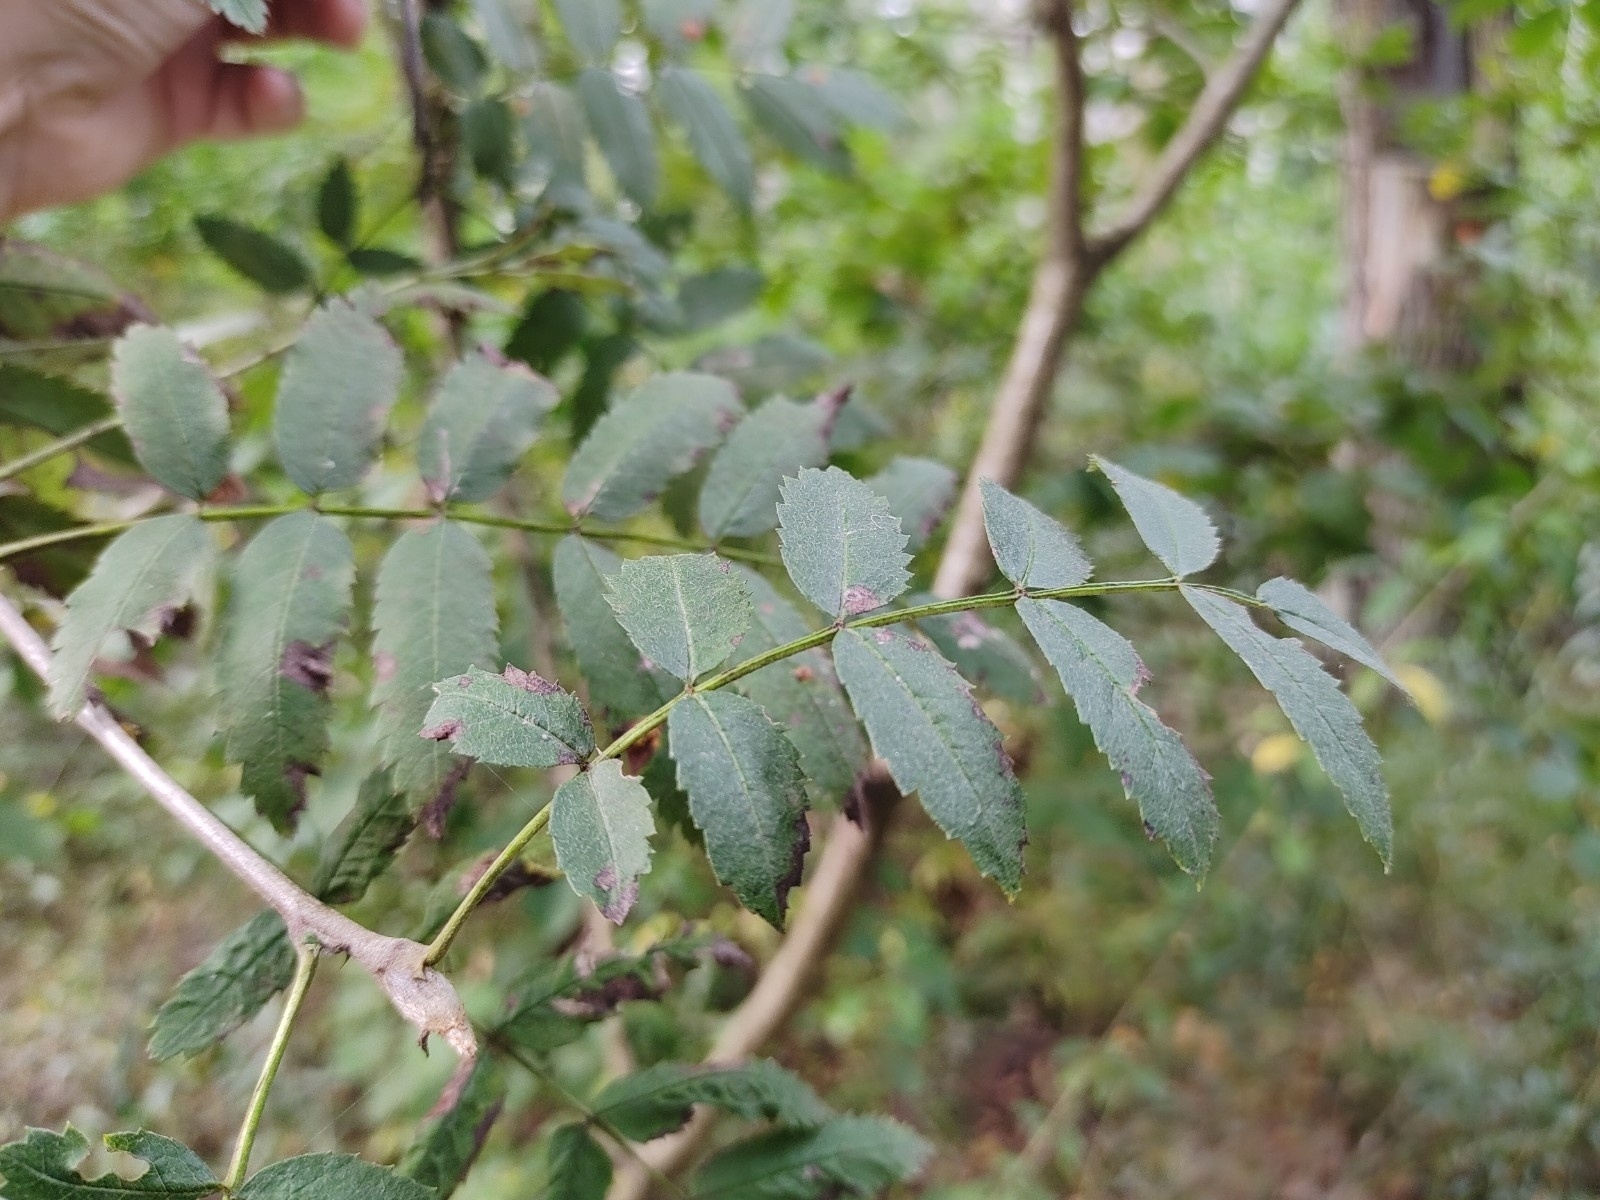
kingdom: Plantae
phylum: Tracheophyta
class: Magnoliopsida
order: Rosales
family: Rosaceae
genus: Sorbus
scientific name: Sorbus aucuparia
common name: Rowan
